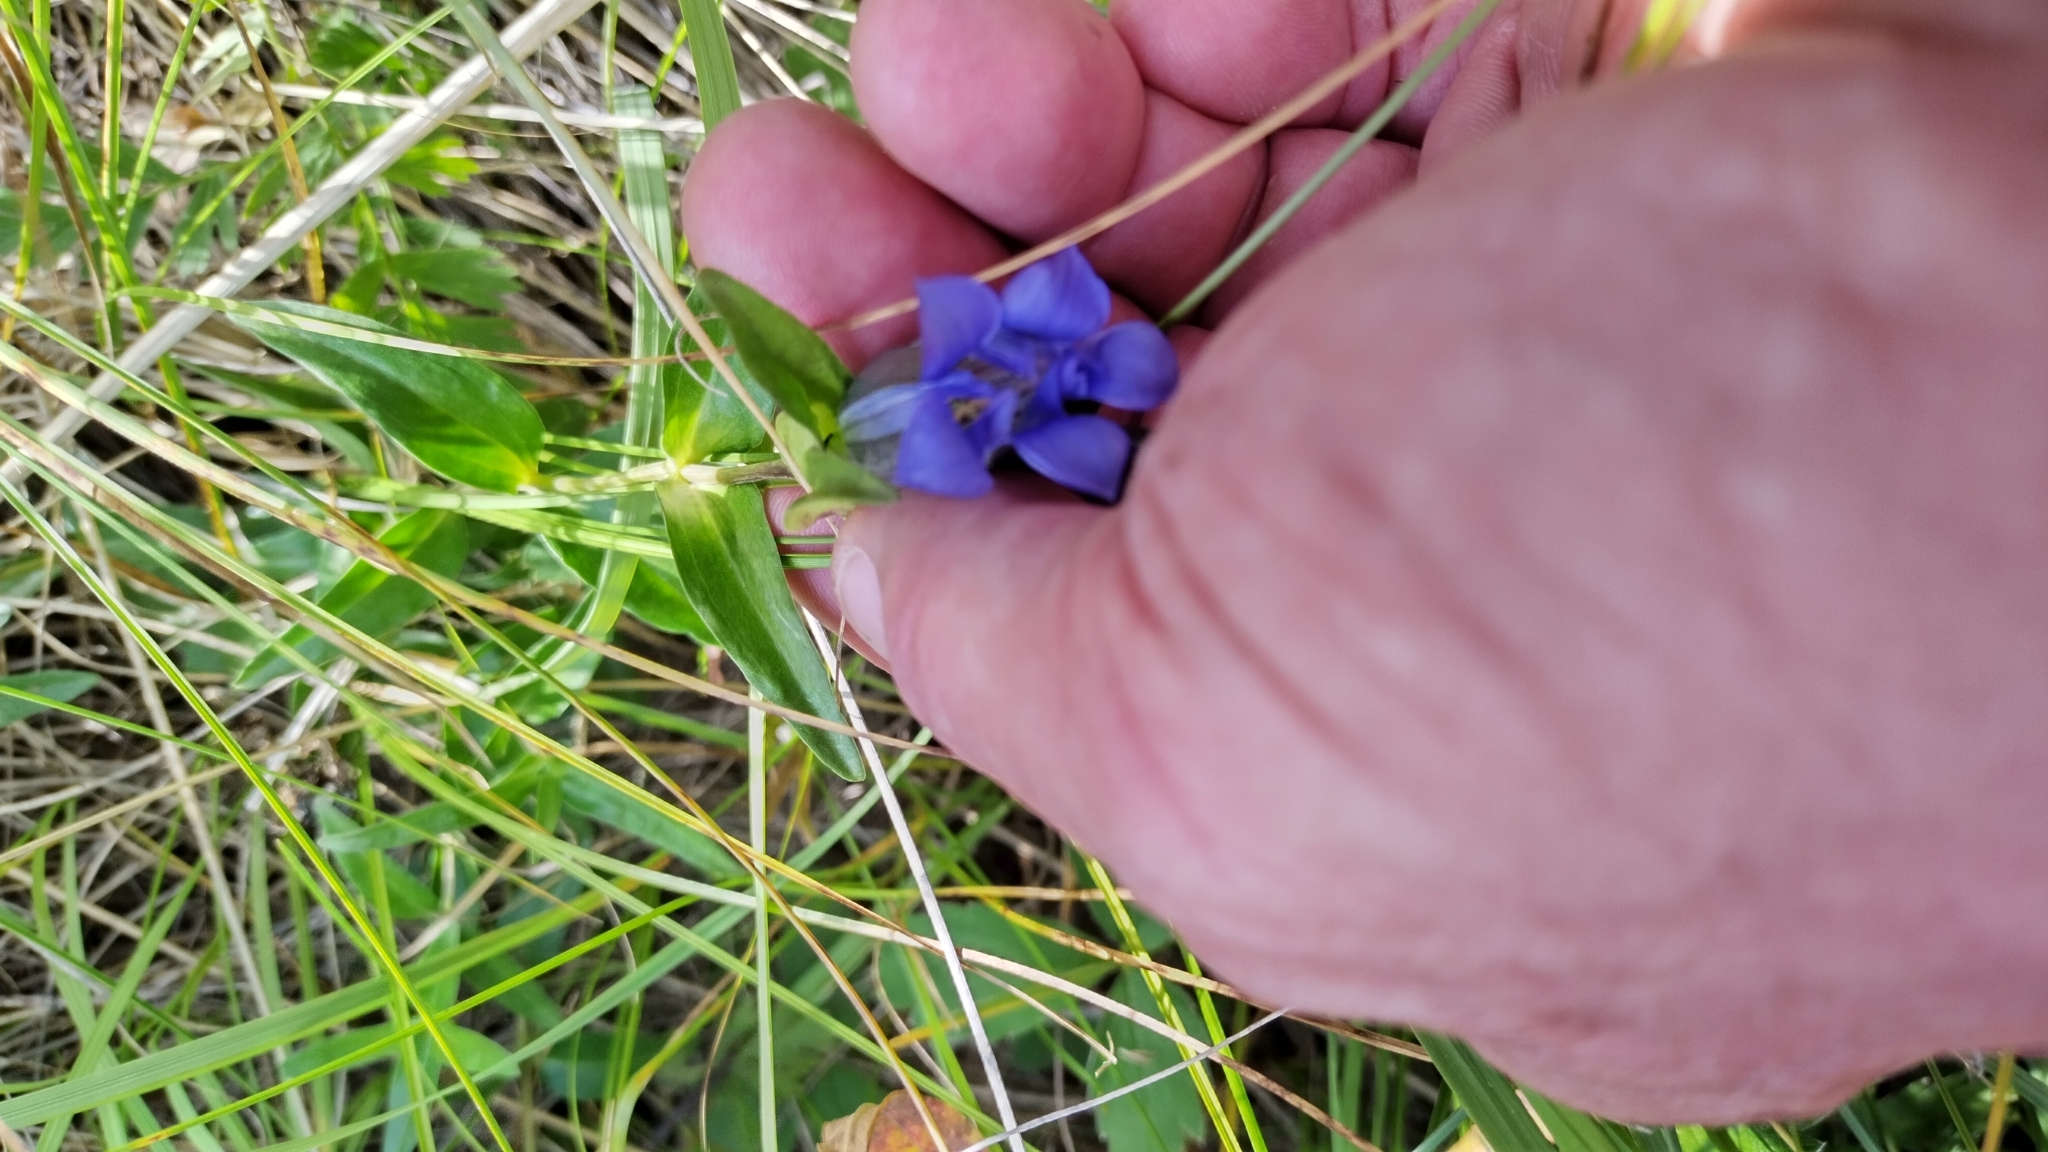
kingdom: Plantae
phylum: Tracheophyta
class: Magnoliopsida
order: Gentianales
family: Gentianaceae
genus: Gentiana
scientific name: Gentiana parryi
